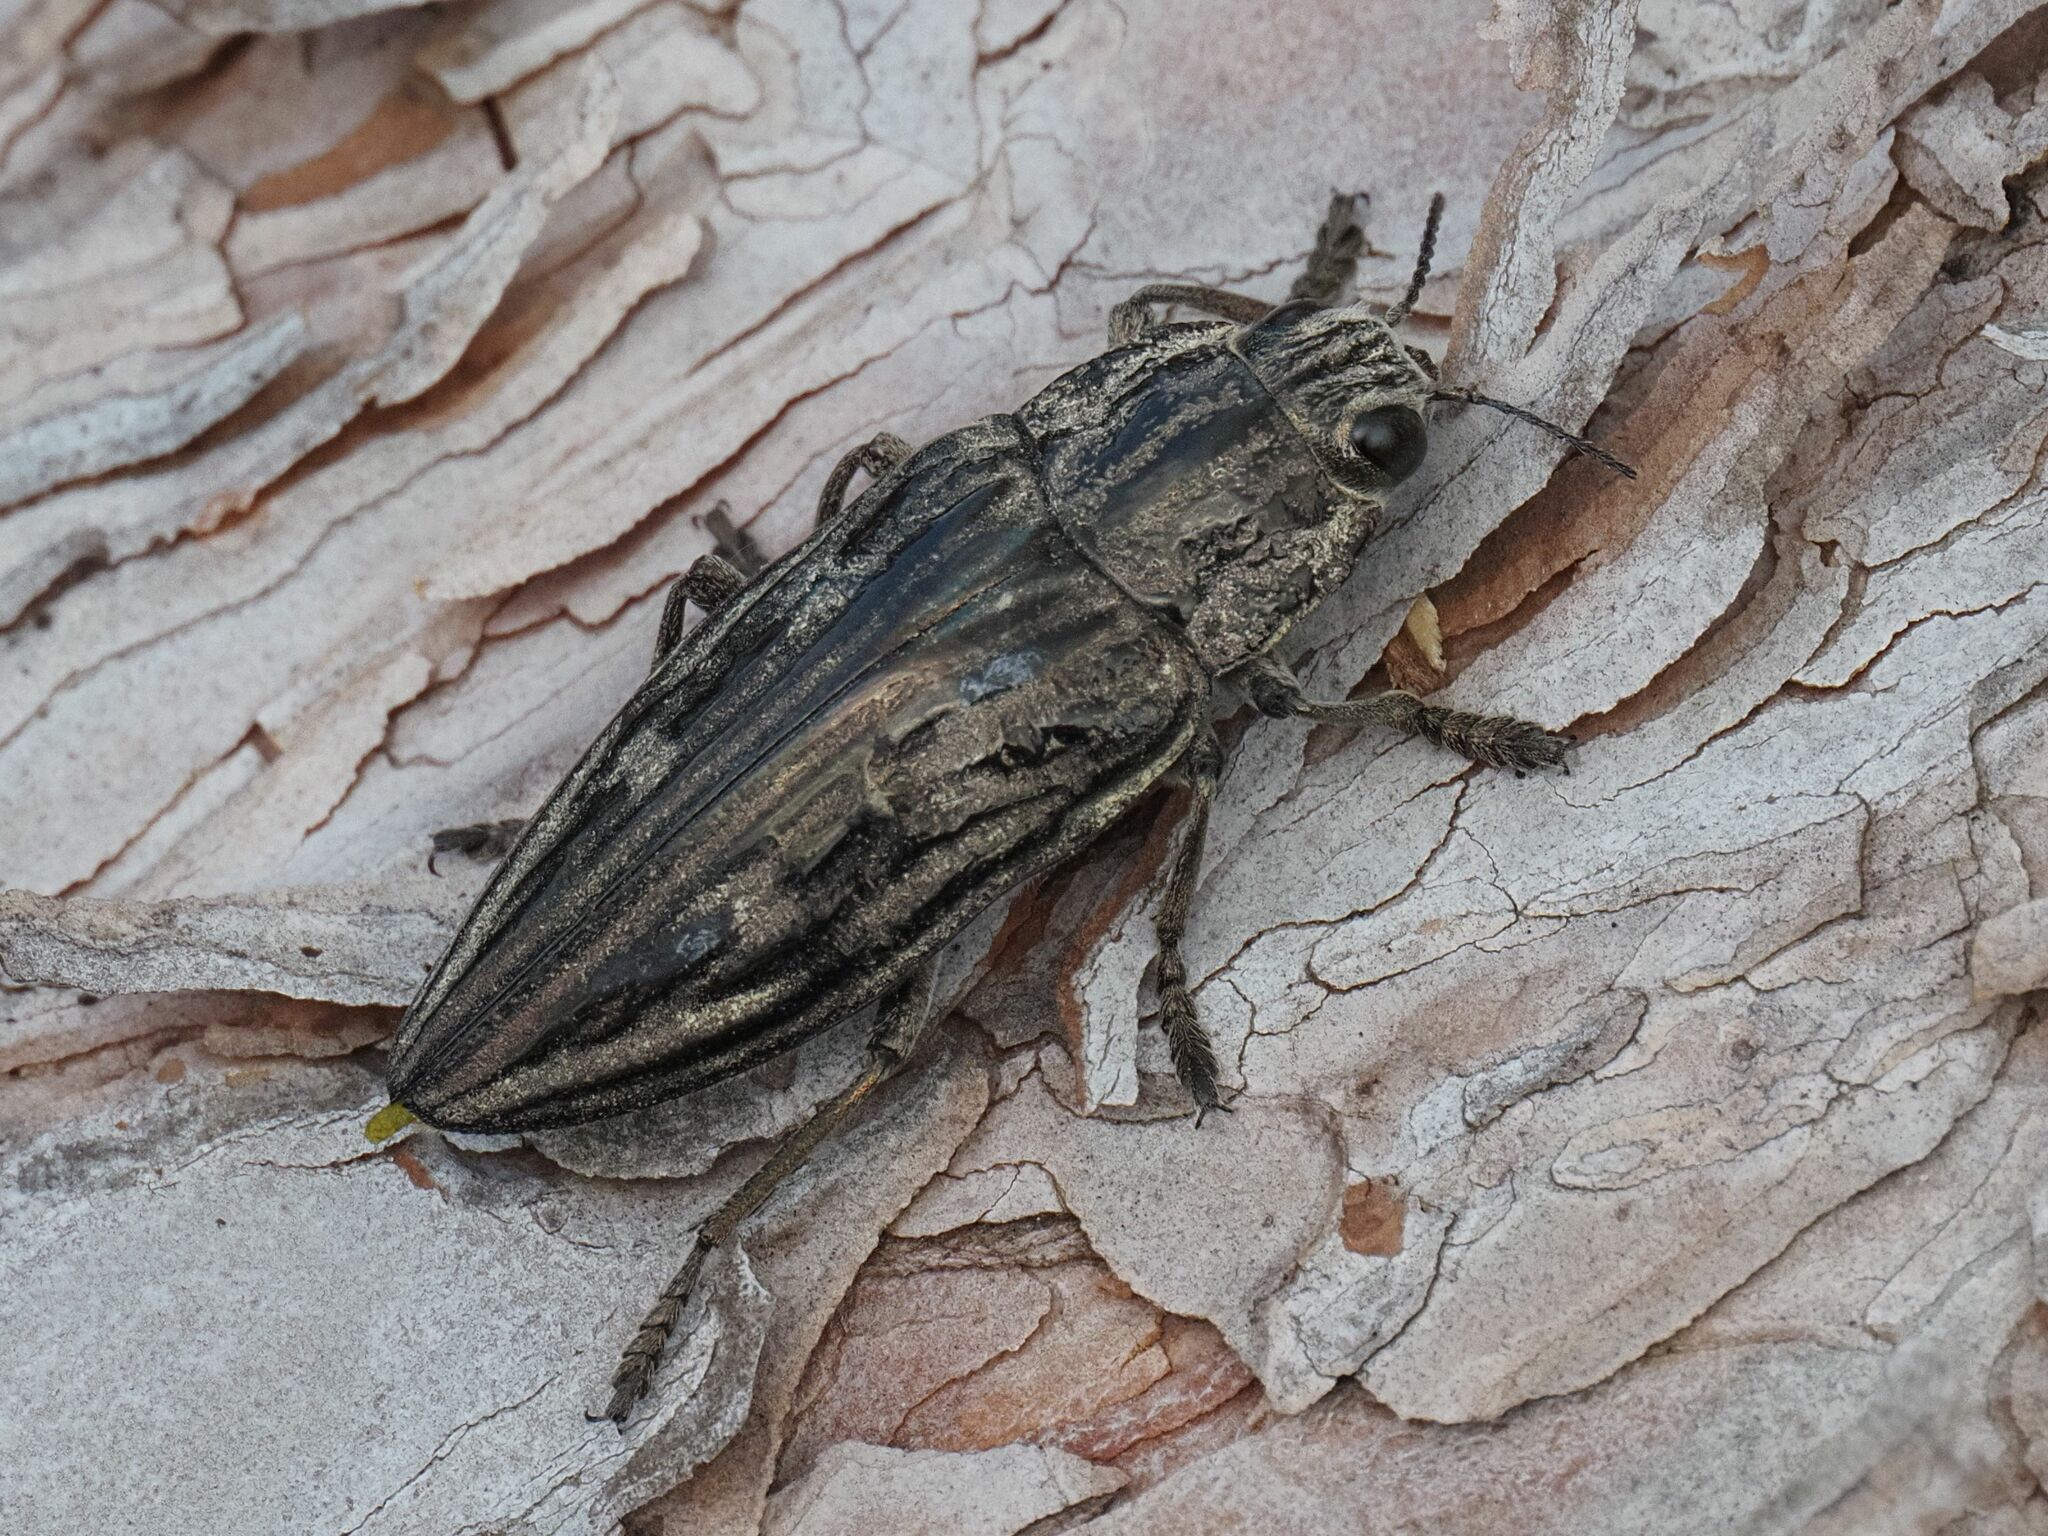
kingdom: Animalia
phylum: Arthropoda
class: Insecta
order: Coleoptera
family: Buprestidae
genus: Chalcophora
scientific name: Chalcophora mariana
